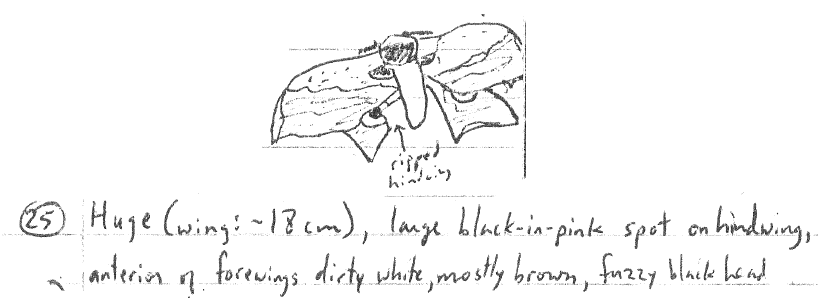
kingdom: Animalia
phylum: Arthropoda
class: Insecta
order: Lepidoptera
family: Saturniidae
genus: Gynanisa
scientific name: Gynanisa maja
